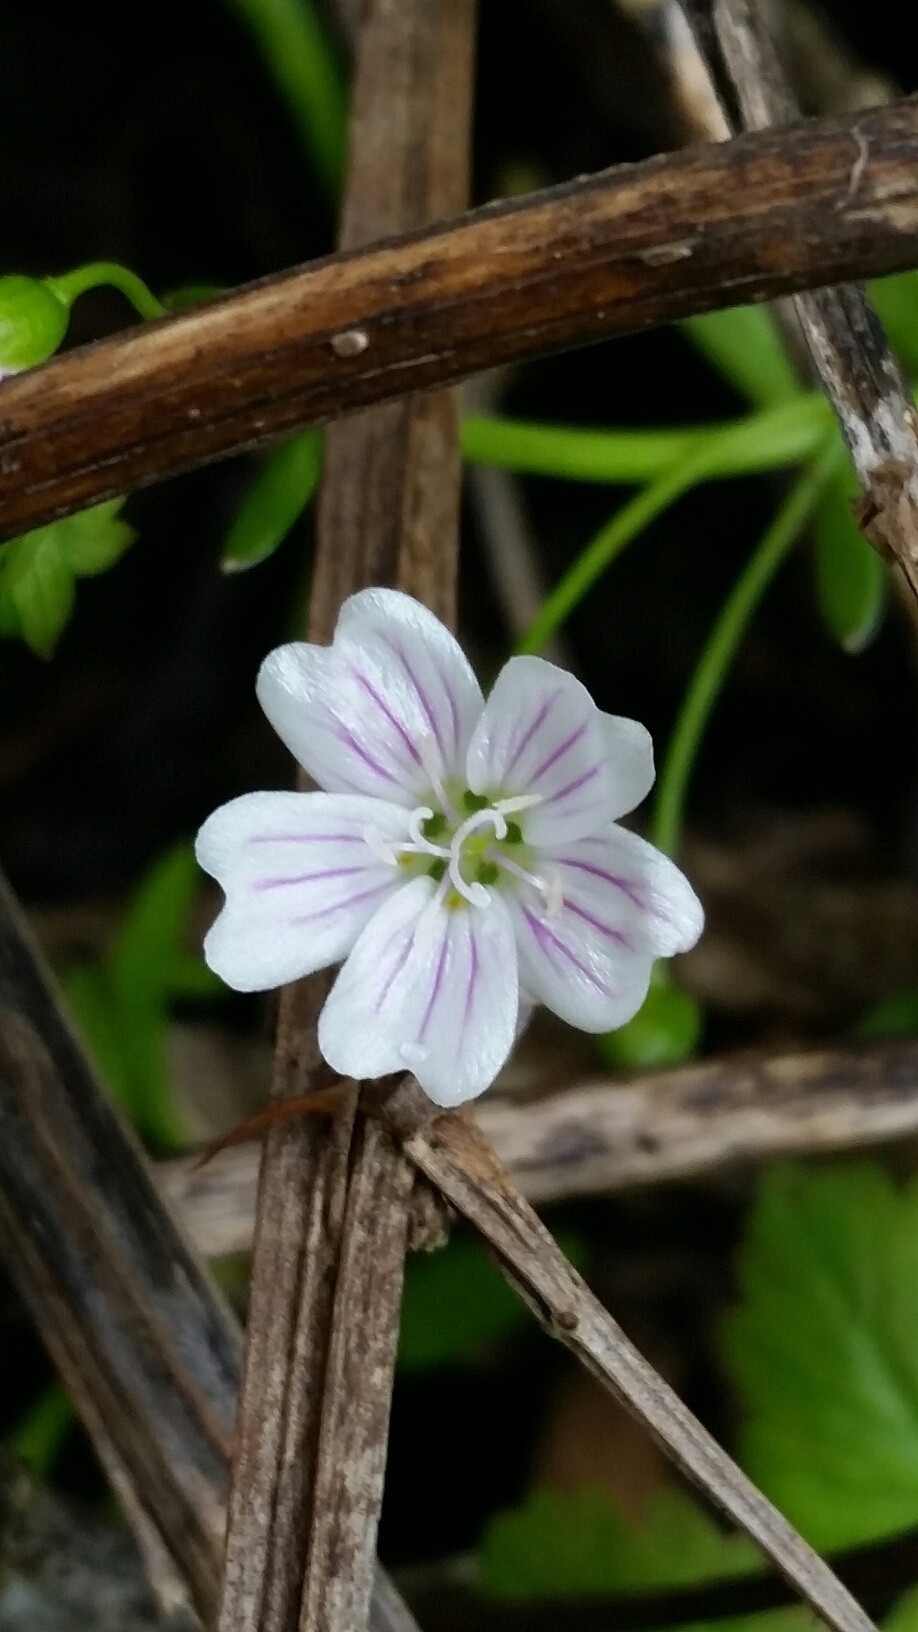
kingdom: Plantae
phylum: Tracheophyta
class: Magnoliopsida
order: Caryophyllales
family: Montiaceae
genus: Claytonia
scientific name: Claytonia sibirica
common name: Pink purslane
